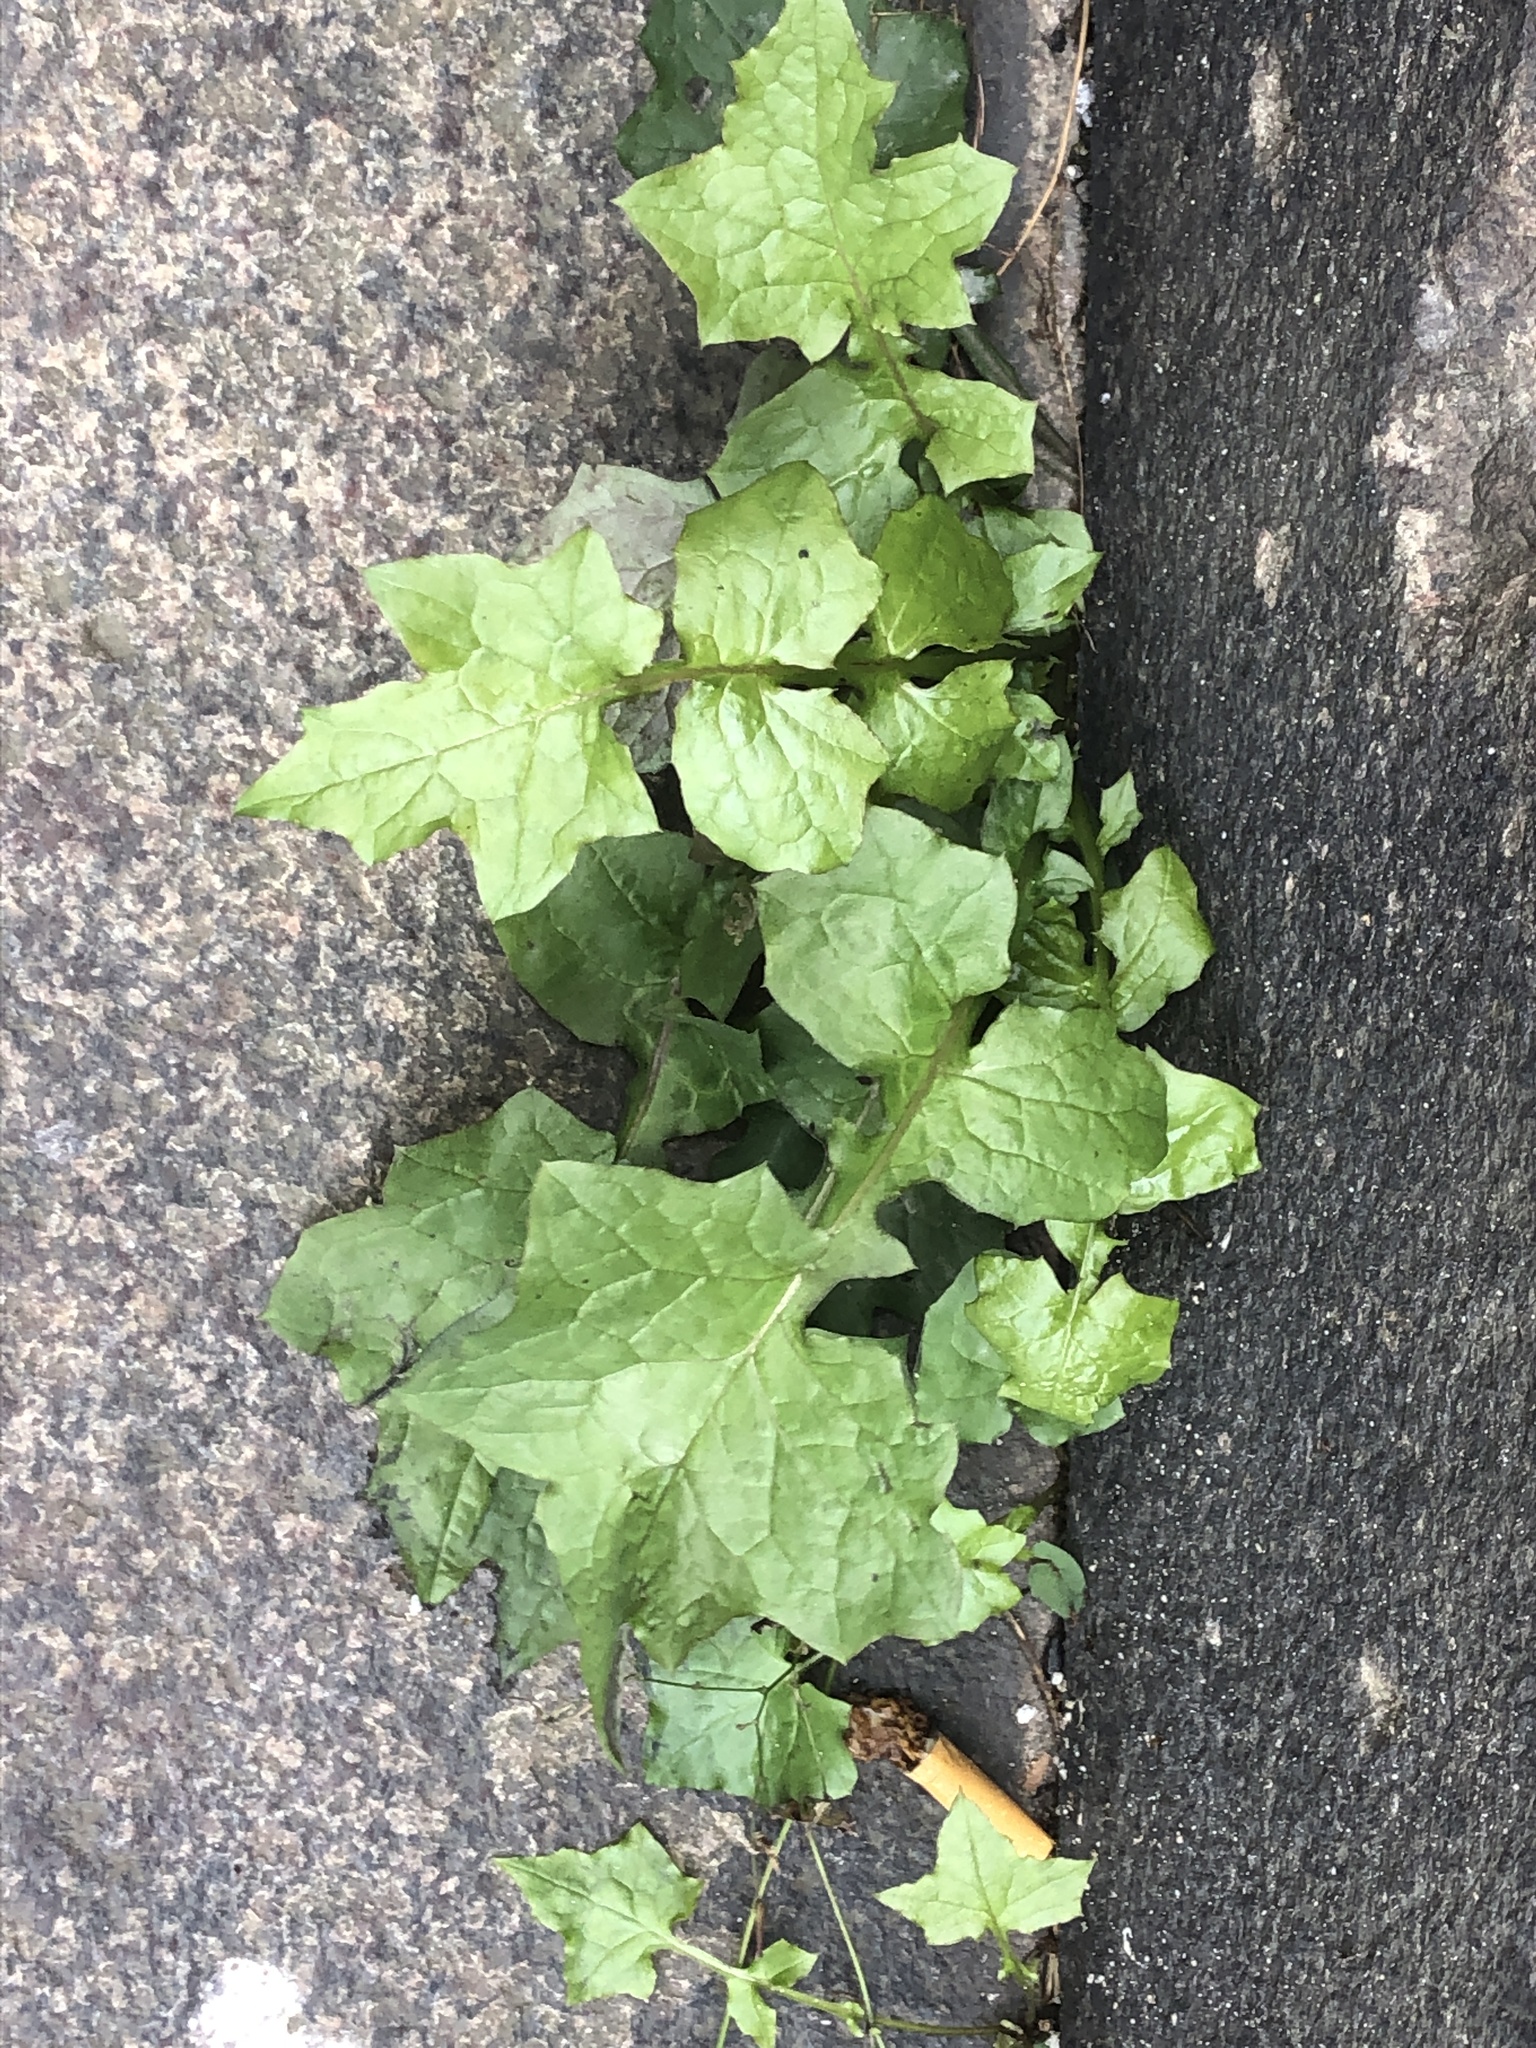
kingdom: Plantae
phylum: Tracheophyta
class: Magnoliopsida
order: Asterales
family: Asteraceae
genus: Mycelis
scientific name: Mycelis muralis
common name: Wall lettuce
